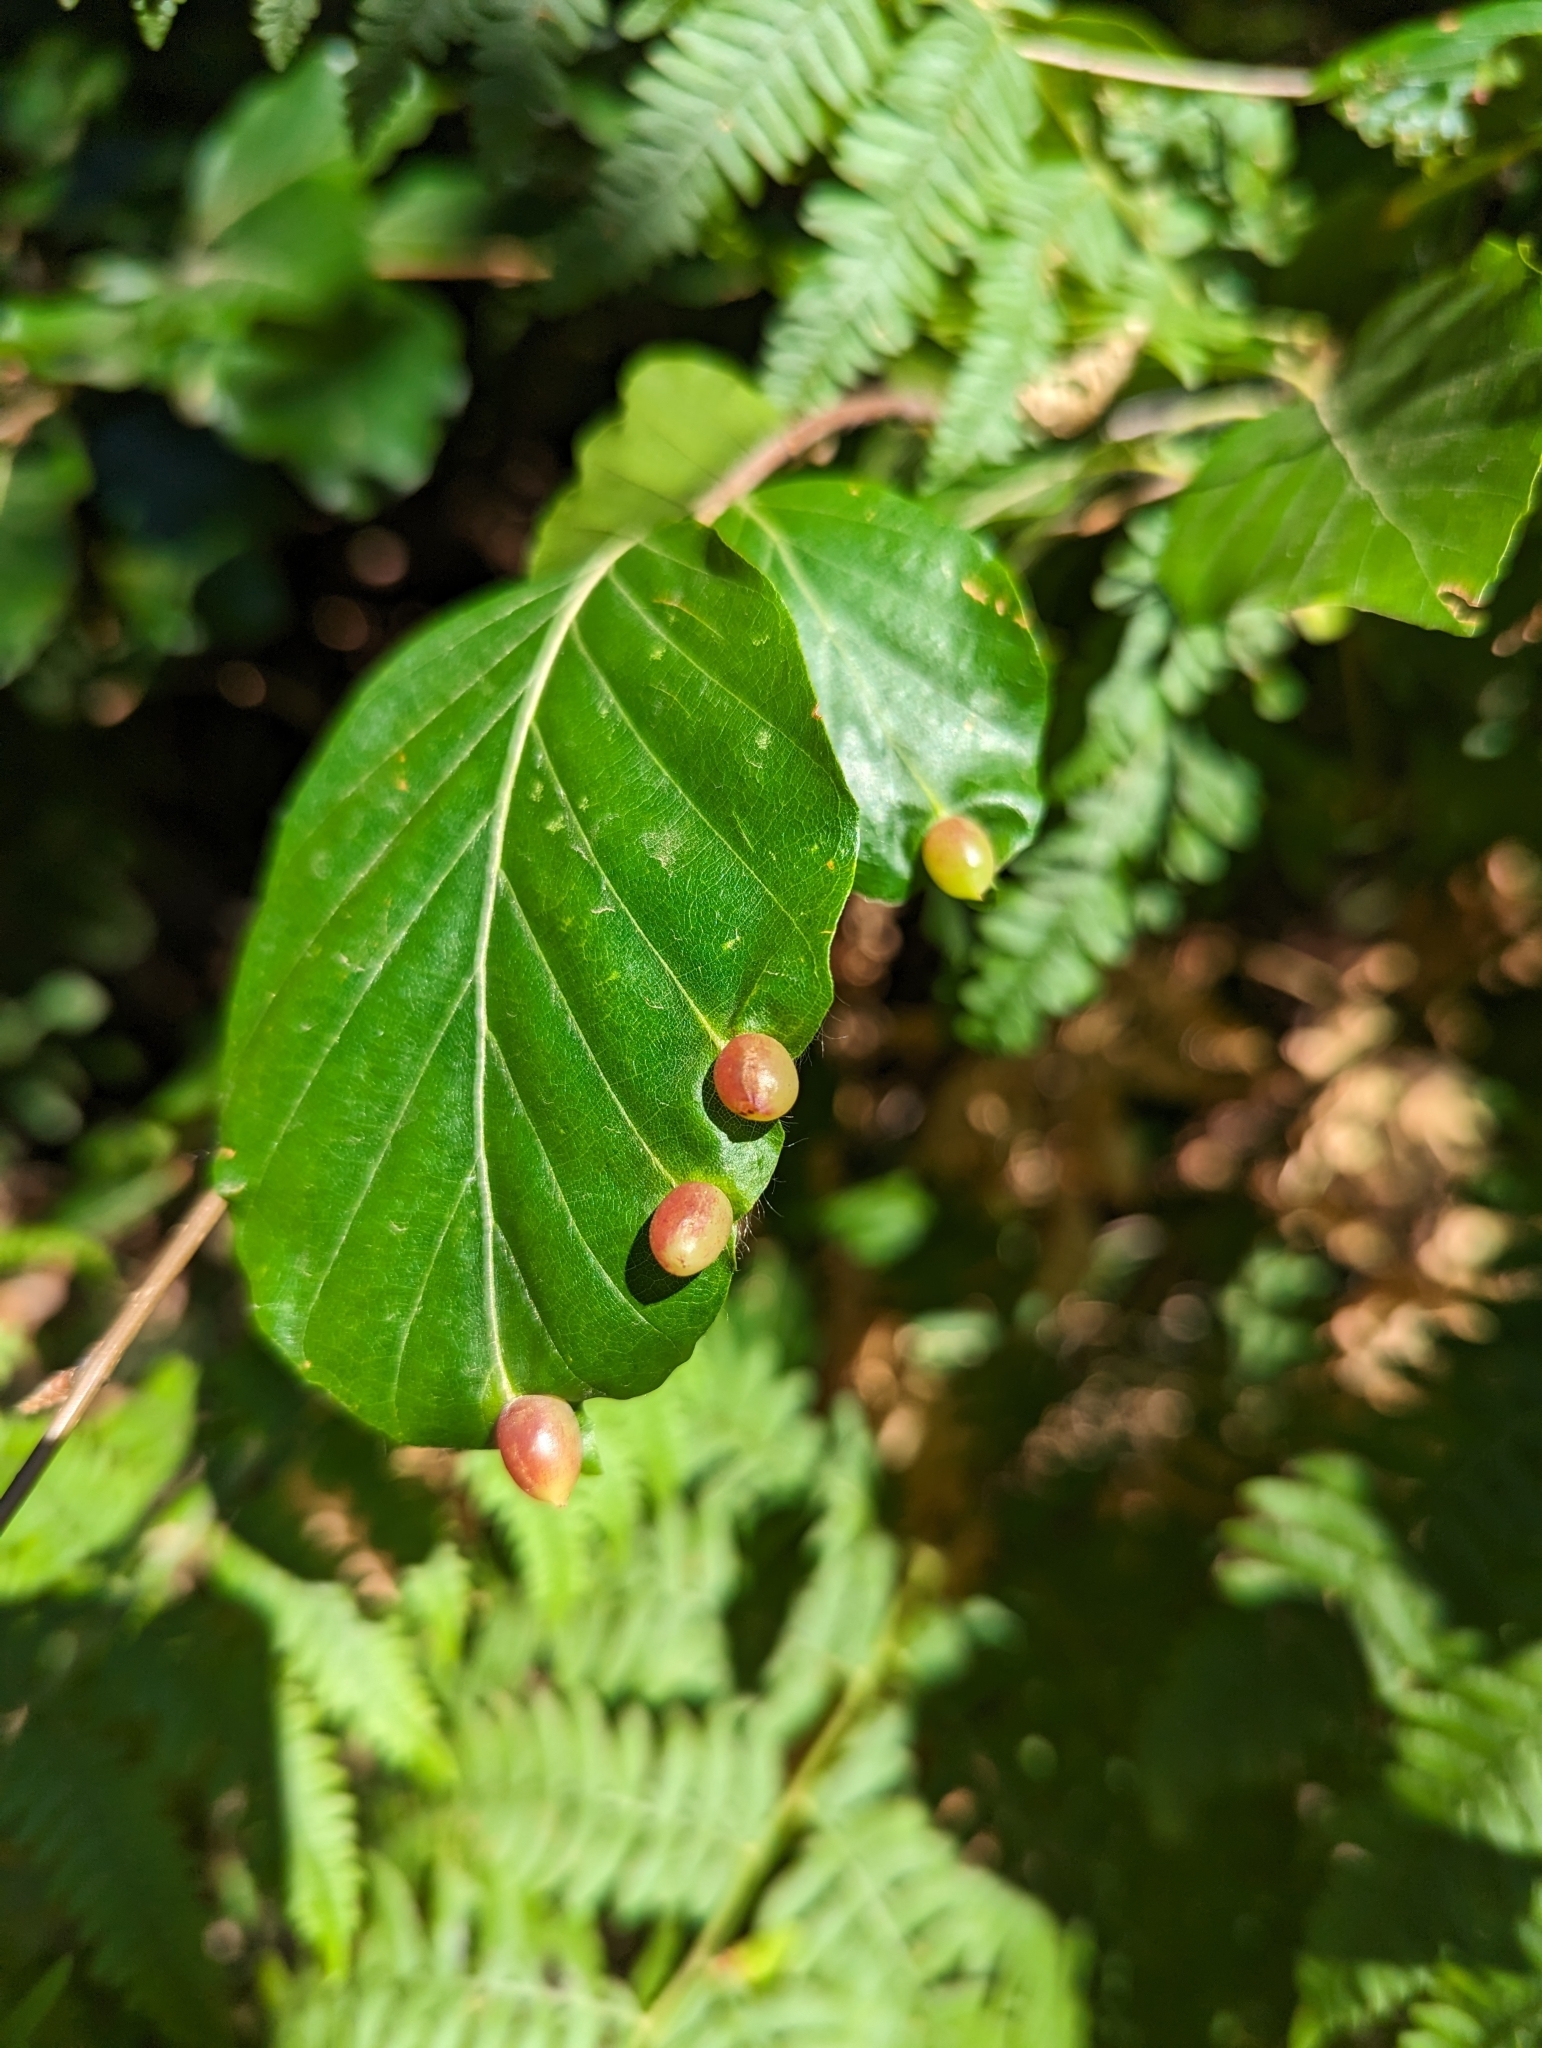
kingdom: Animalia
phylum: Arthropoda
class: Insecta
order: Diptera
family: Cecidomyiidae
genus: Mikiola
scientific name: Mikiola fagi
